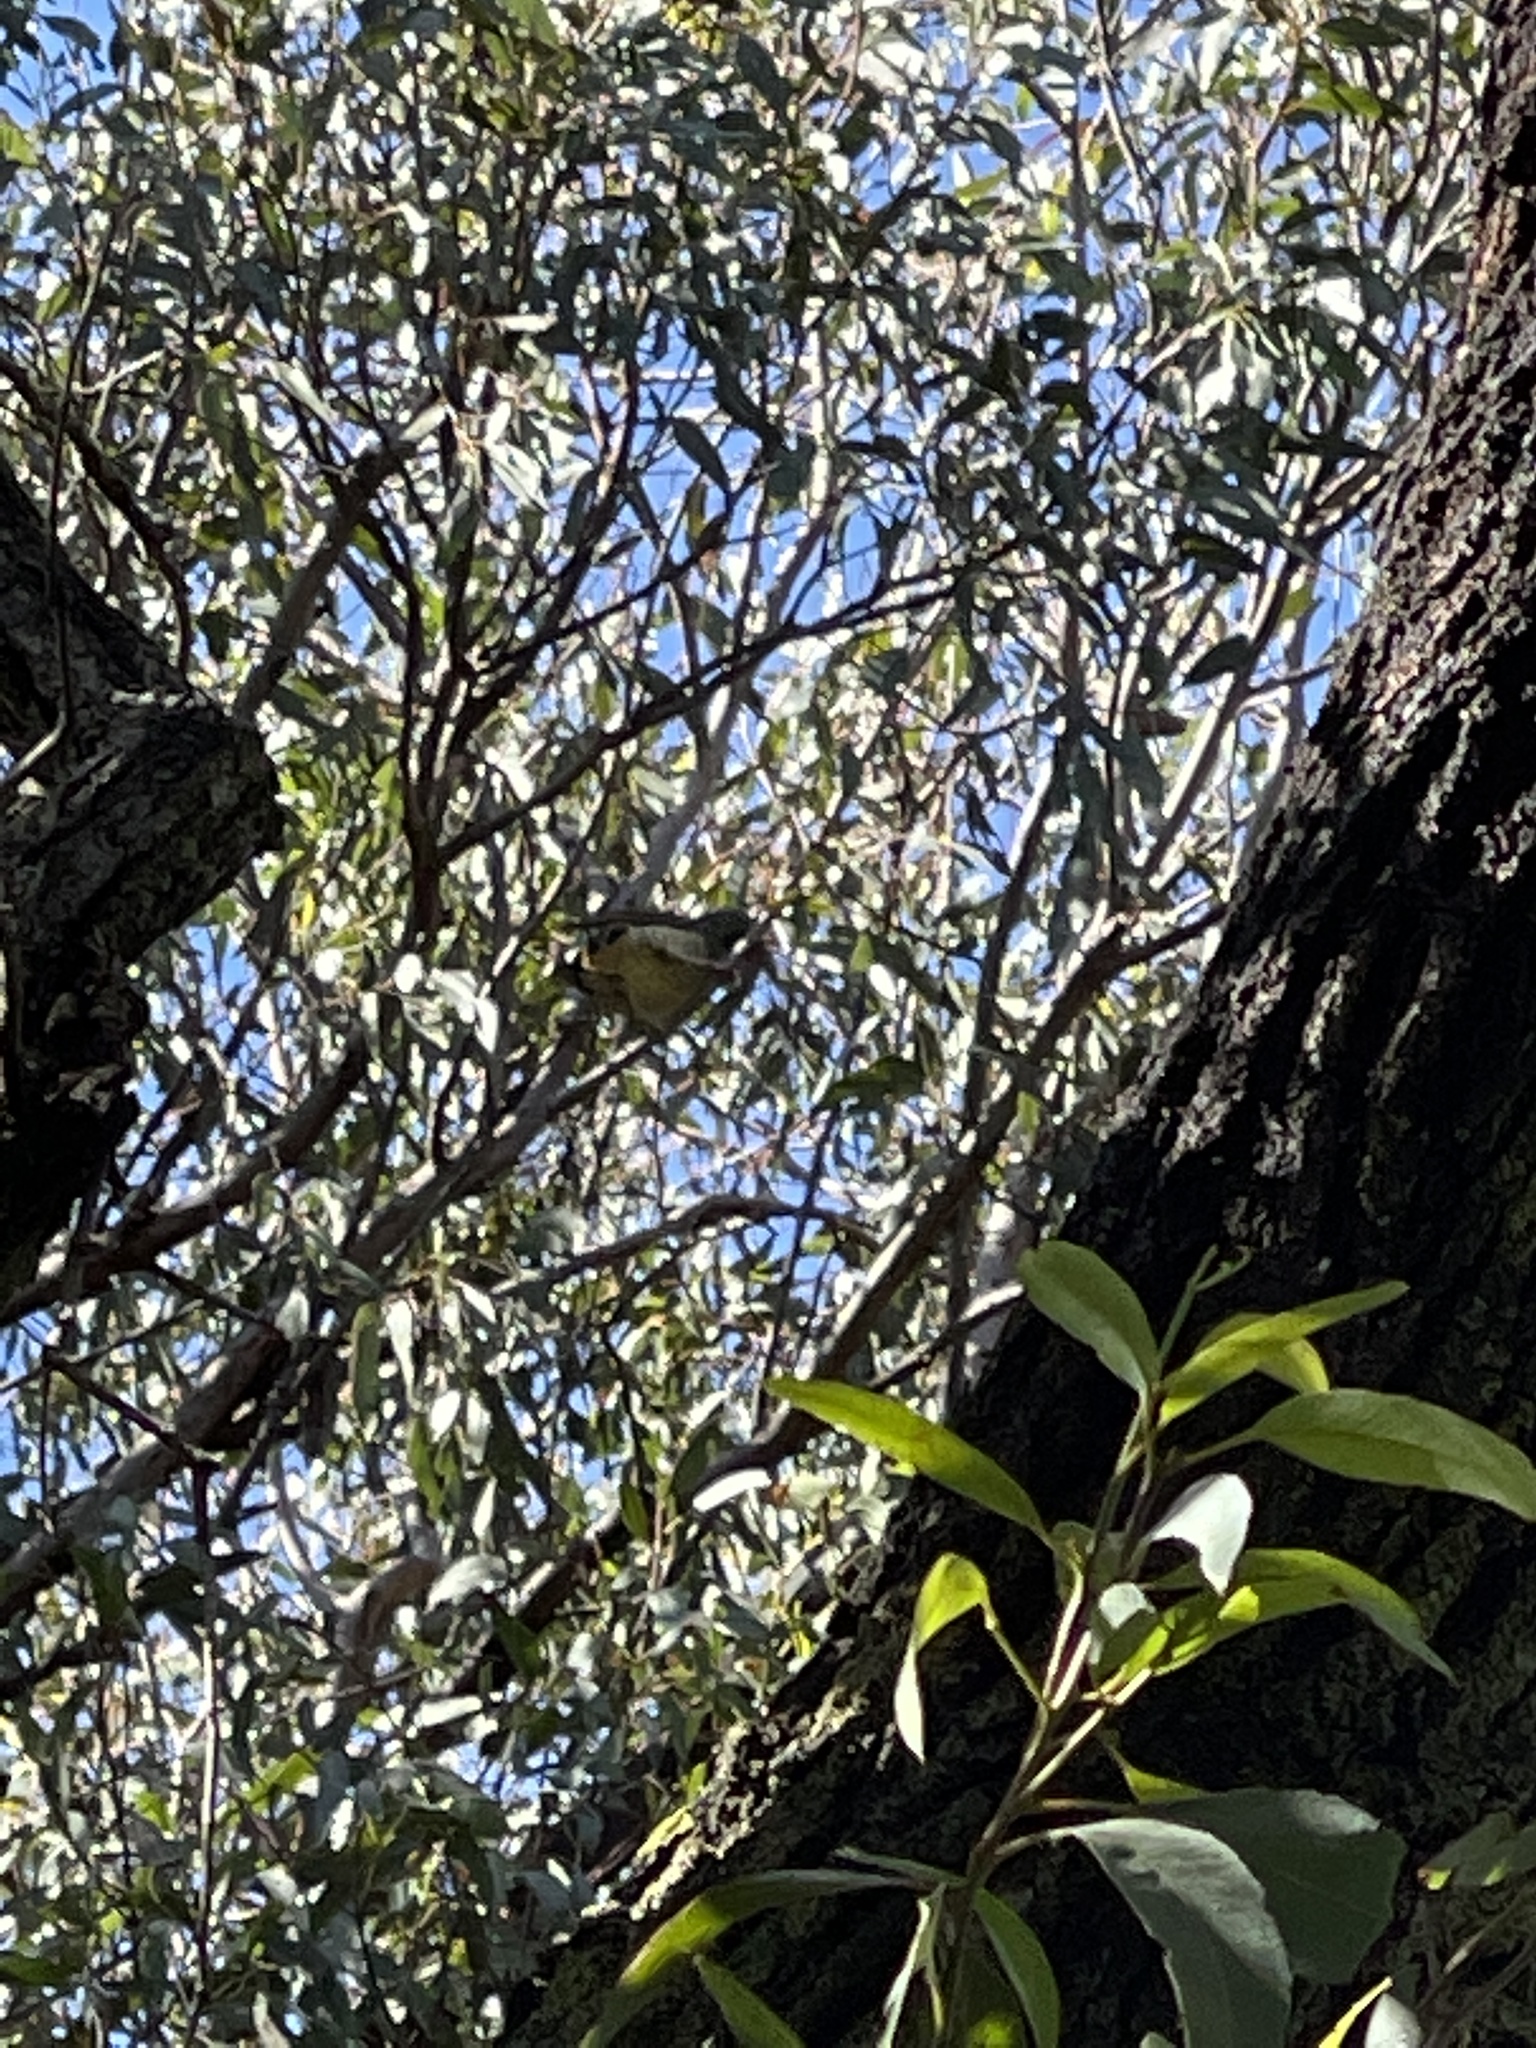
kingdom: Animalia
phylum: Chordata
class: Aves
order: Passeriformes
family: Ptilonorhynchidae
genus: Ptilonorhynchus
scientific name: Ptilonorhynchus violaceus
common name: Satin bowerbird
